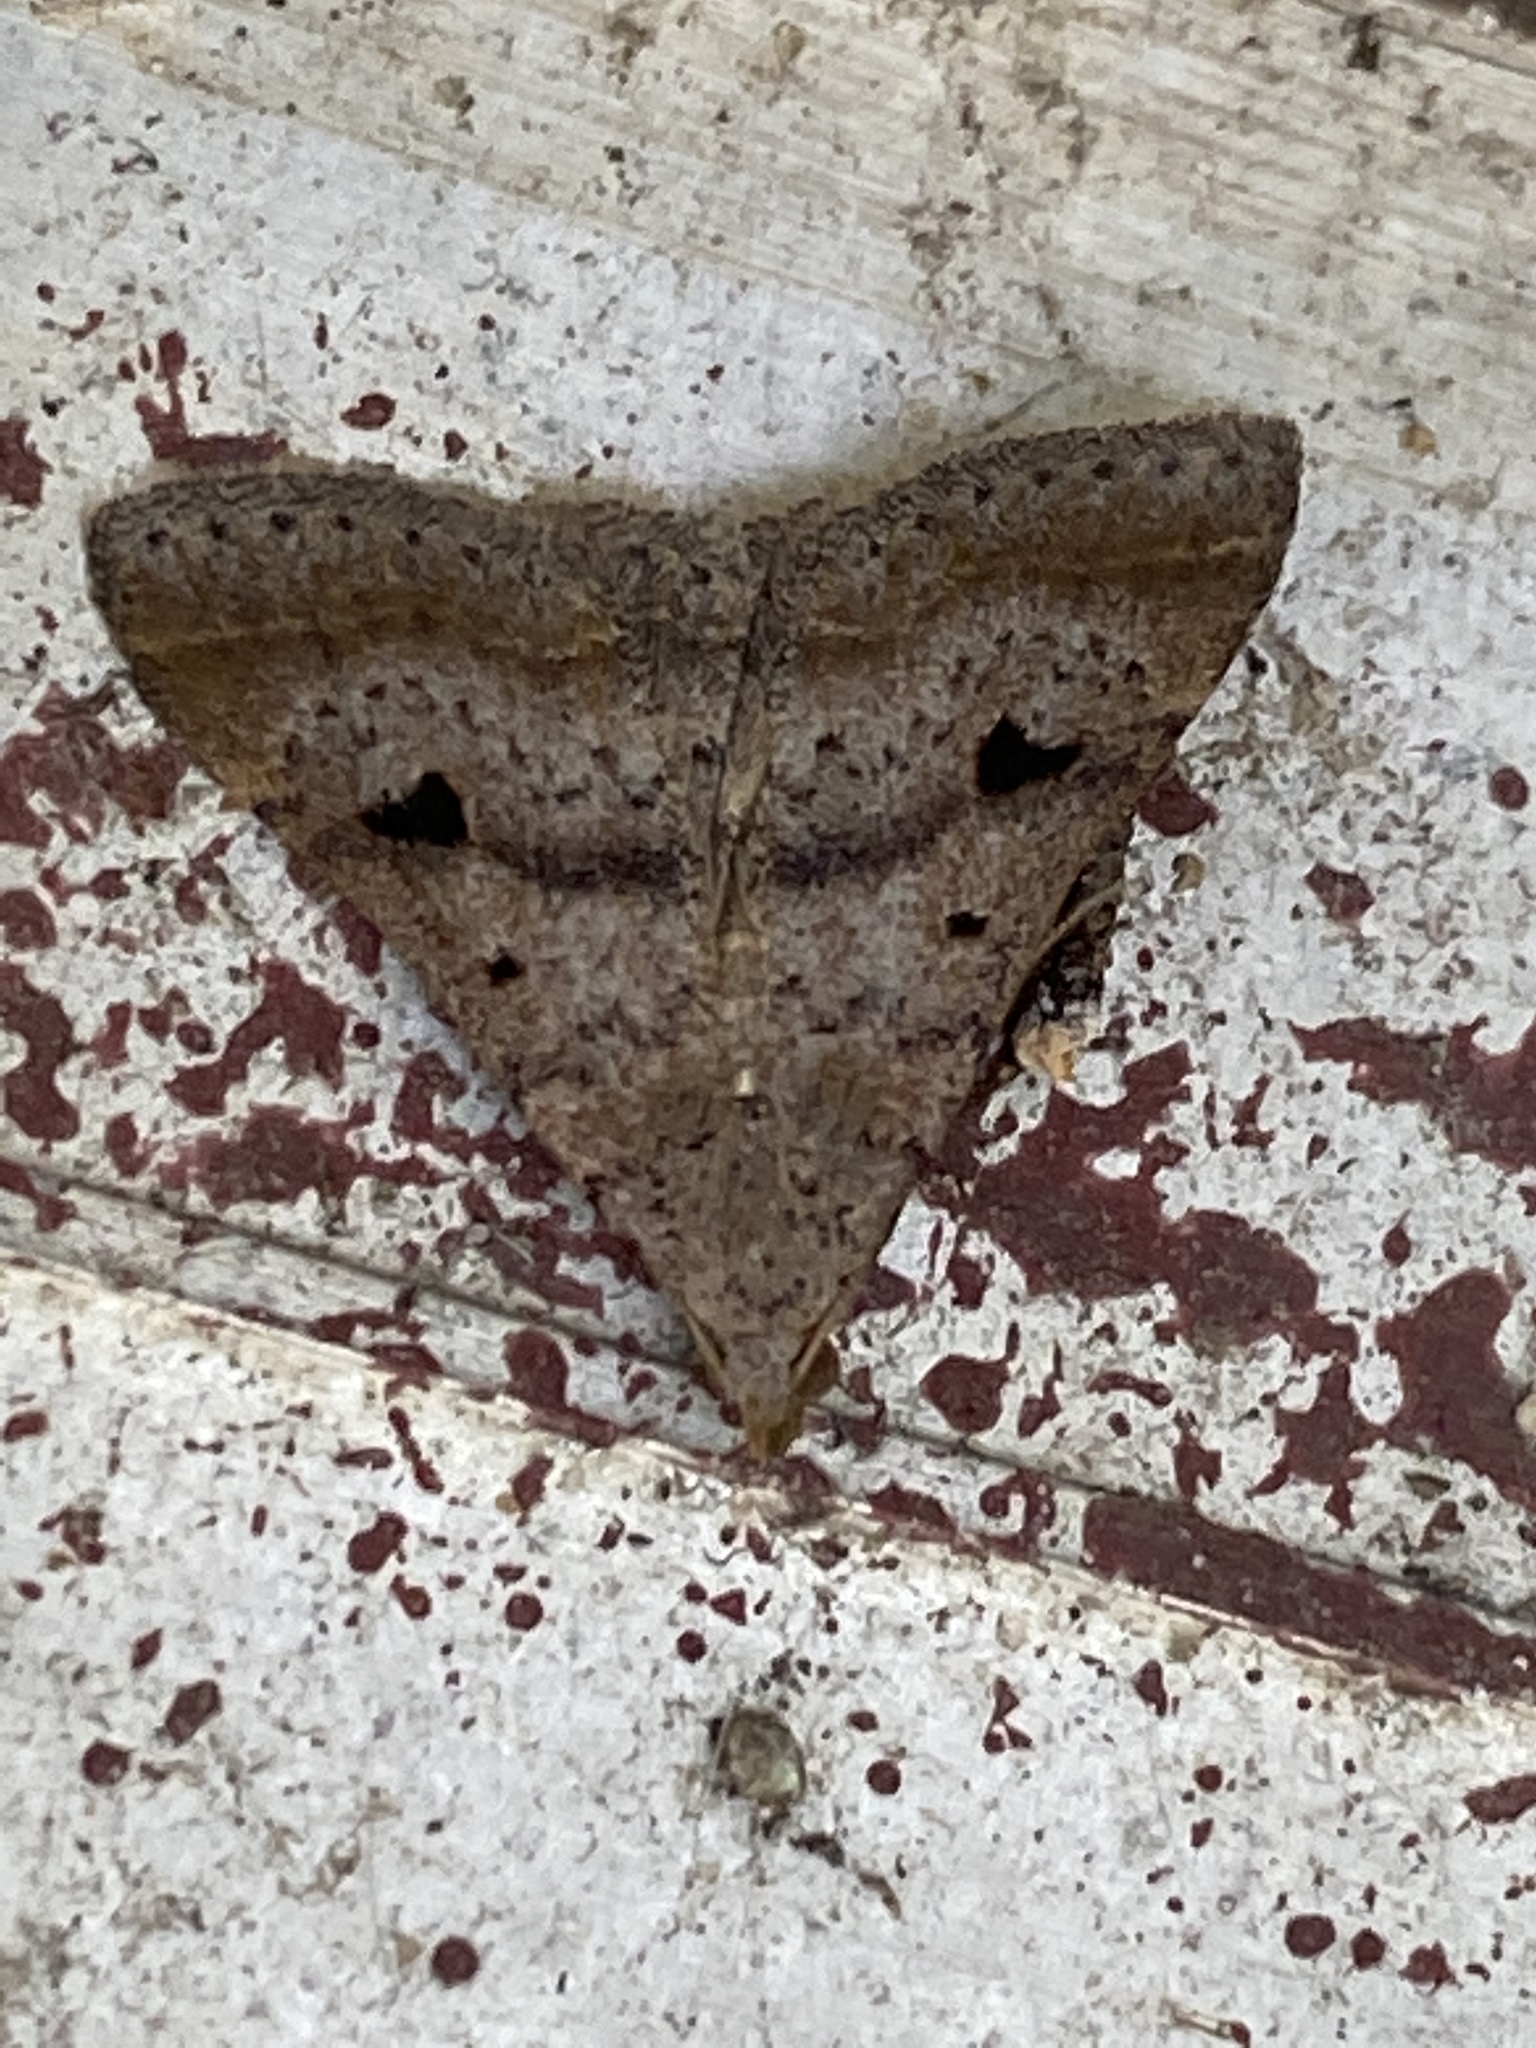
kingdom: Animalia
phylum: Arthropoda
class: Insecta
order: Lepidoptera
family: Erebidae
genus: Bleptina
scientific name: Bleptina caradrinalis
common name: Bent-winged owlet
